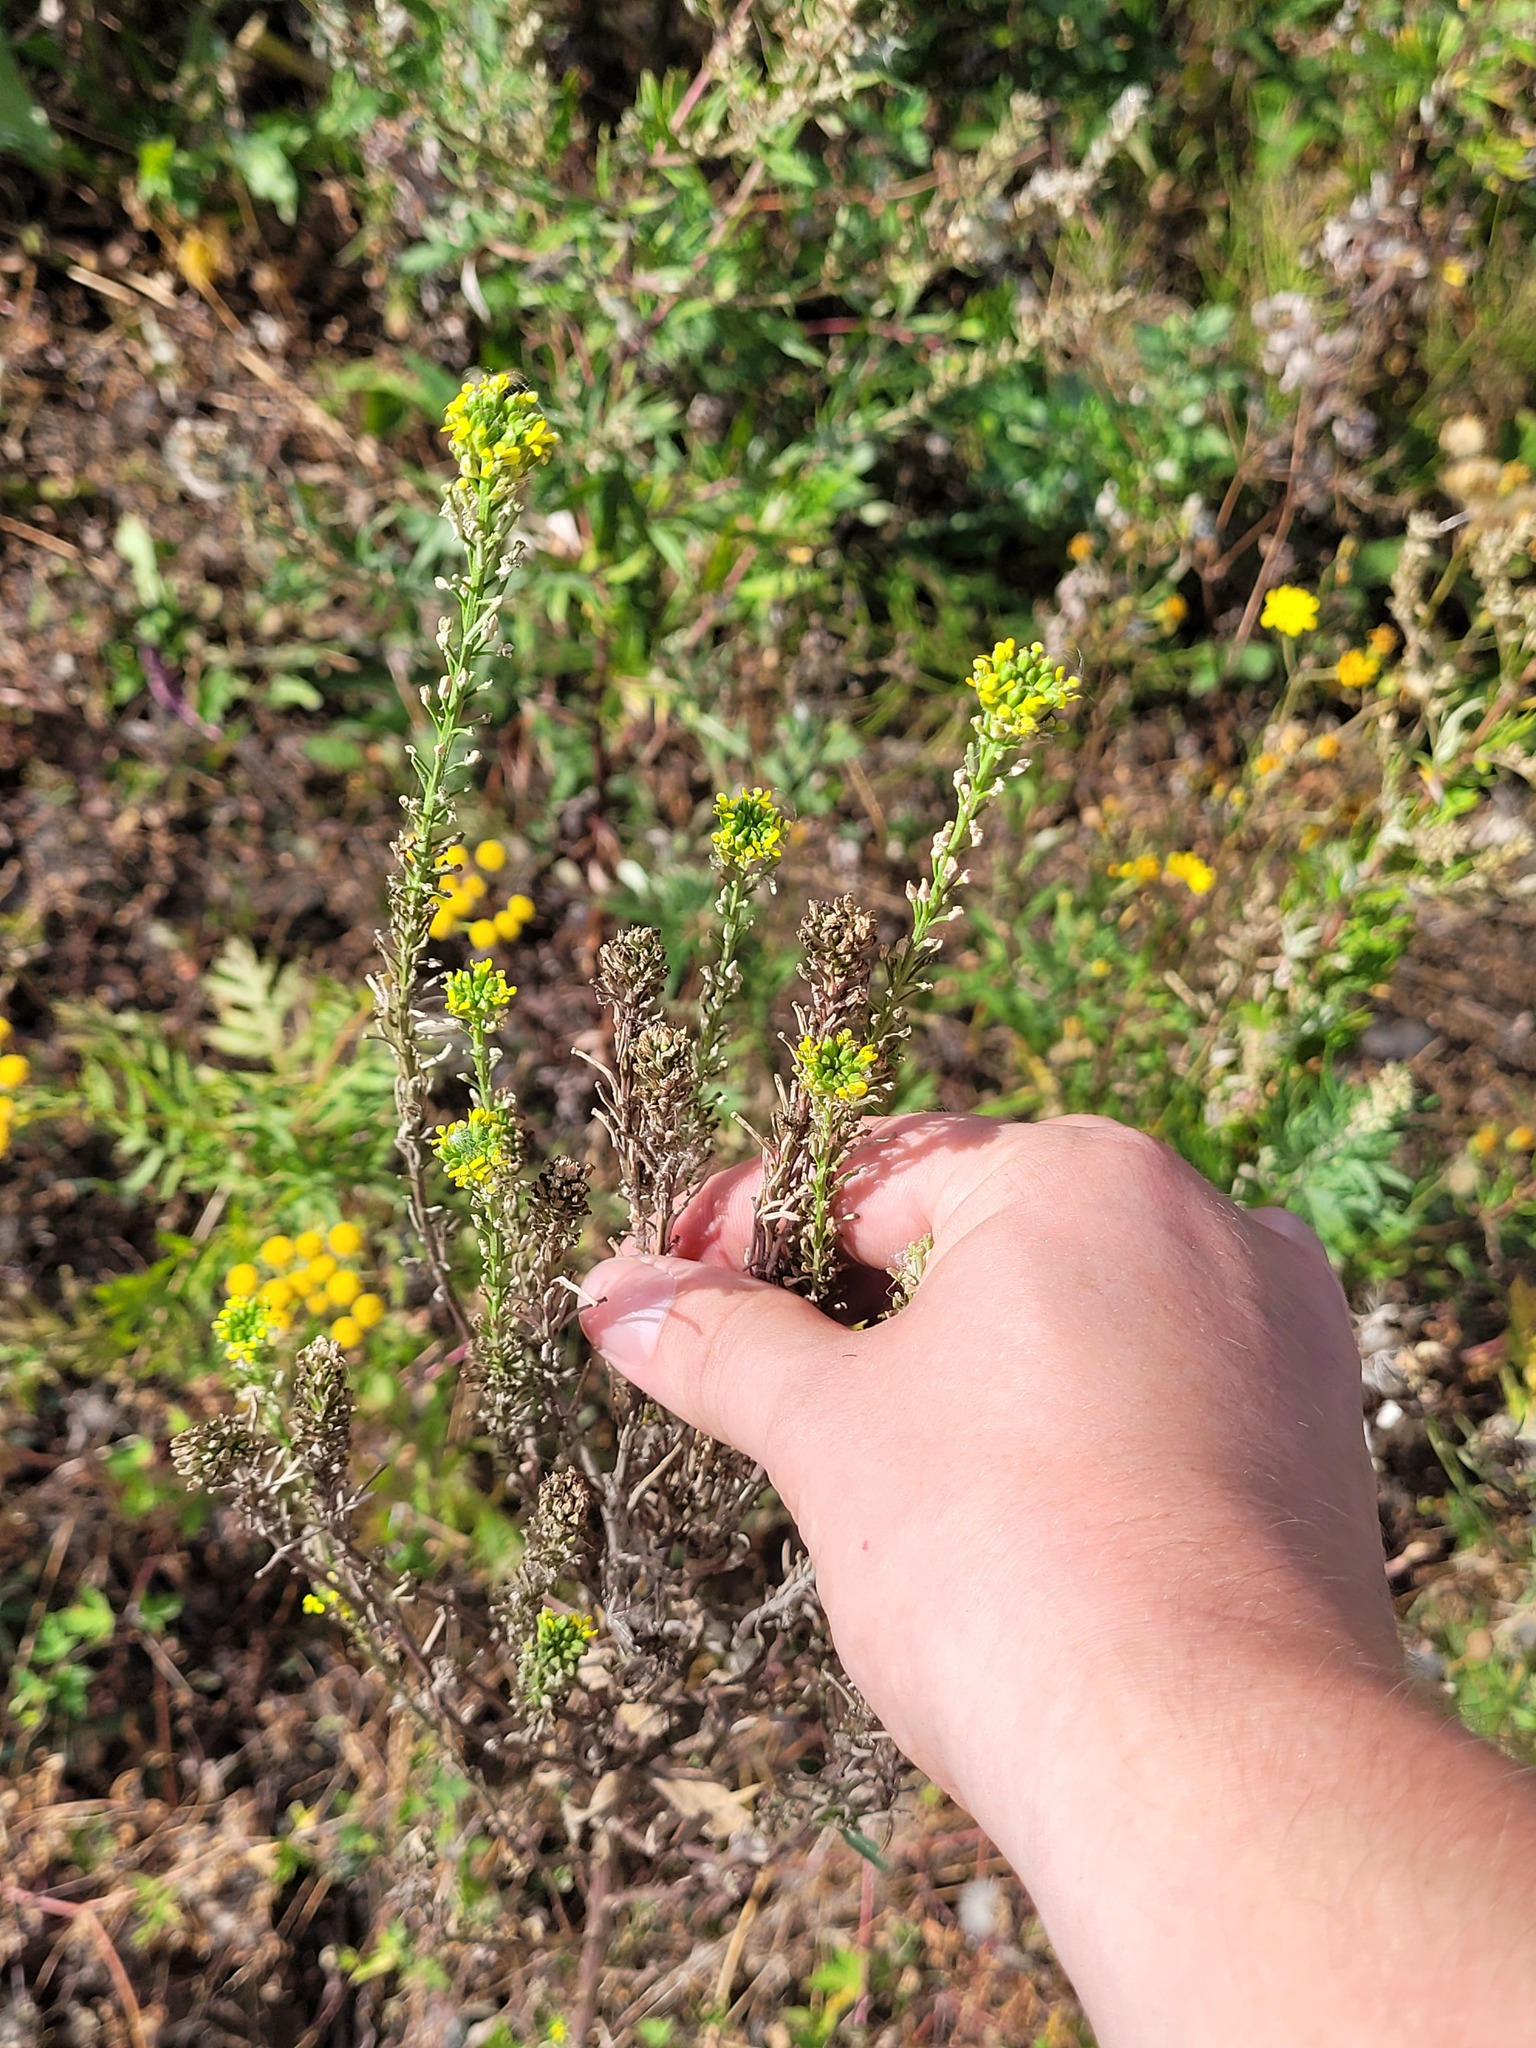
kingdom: Plantae
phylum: Tracheophyta
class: Magnoliopsida
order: Brassicales
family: Brassicaceae
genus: Erysimum
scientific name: Erysimum hieraciifolium
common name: European wallflower
